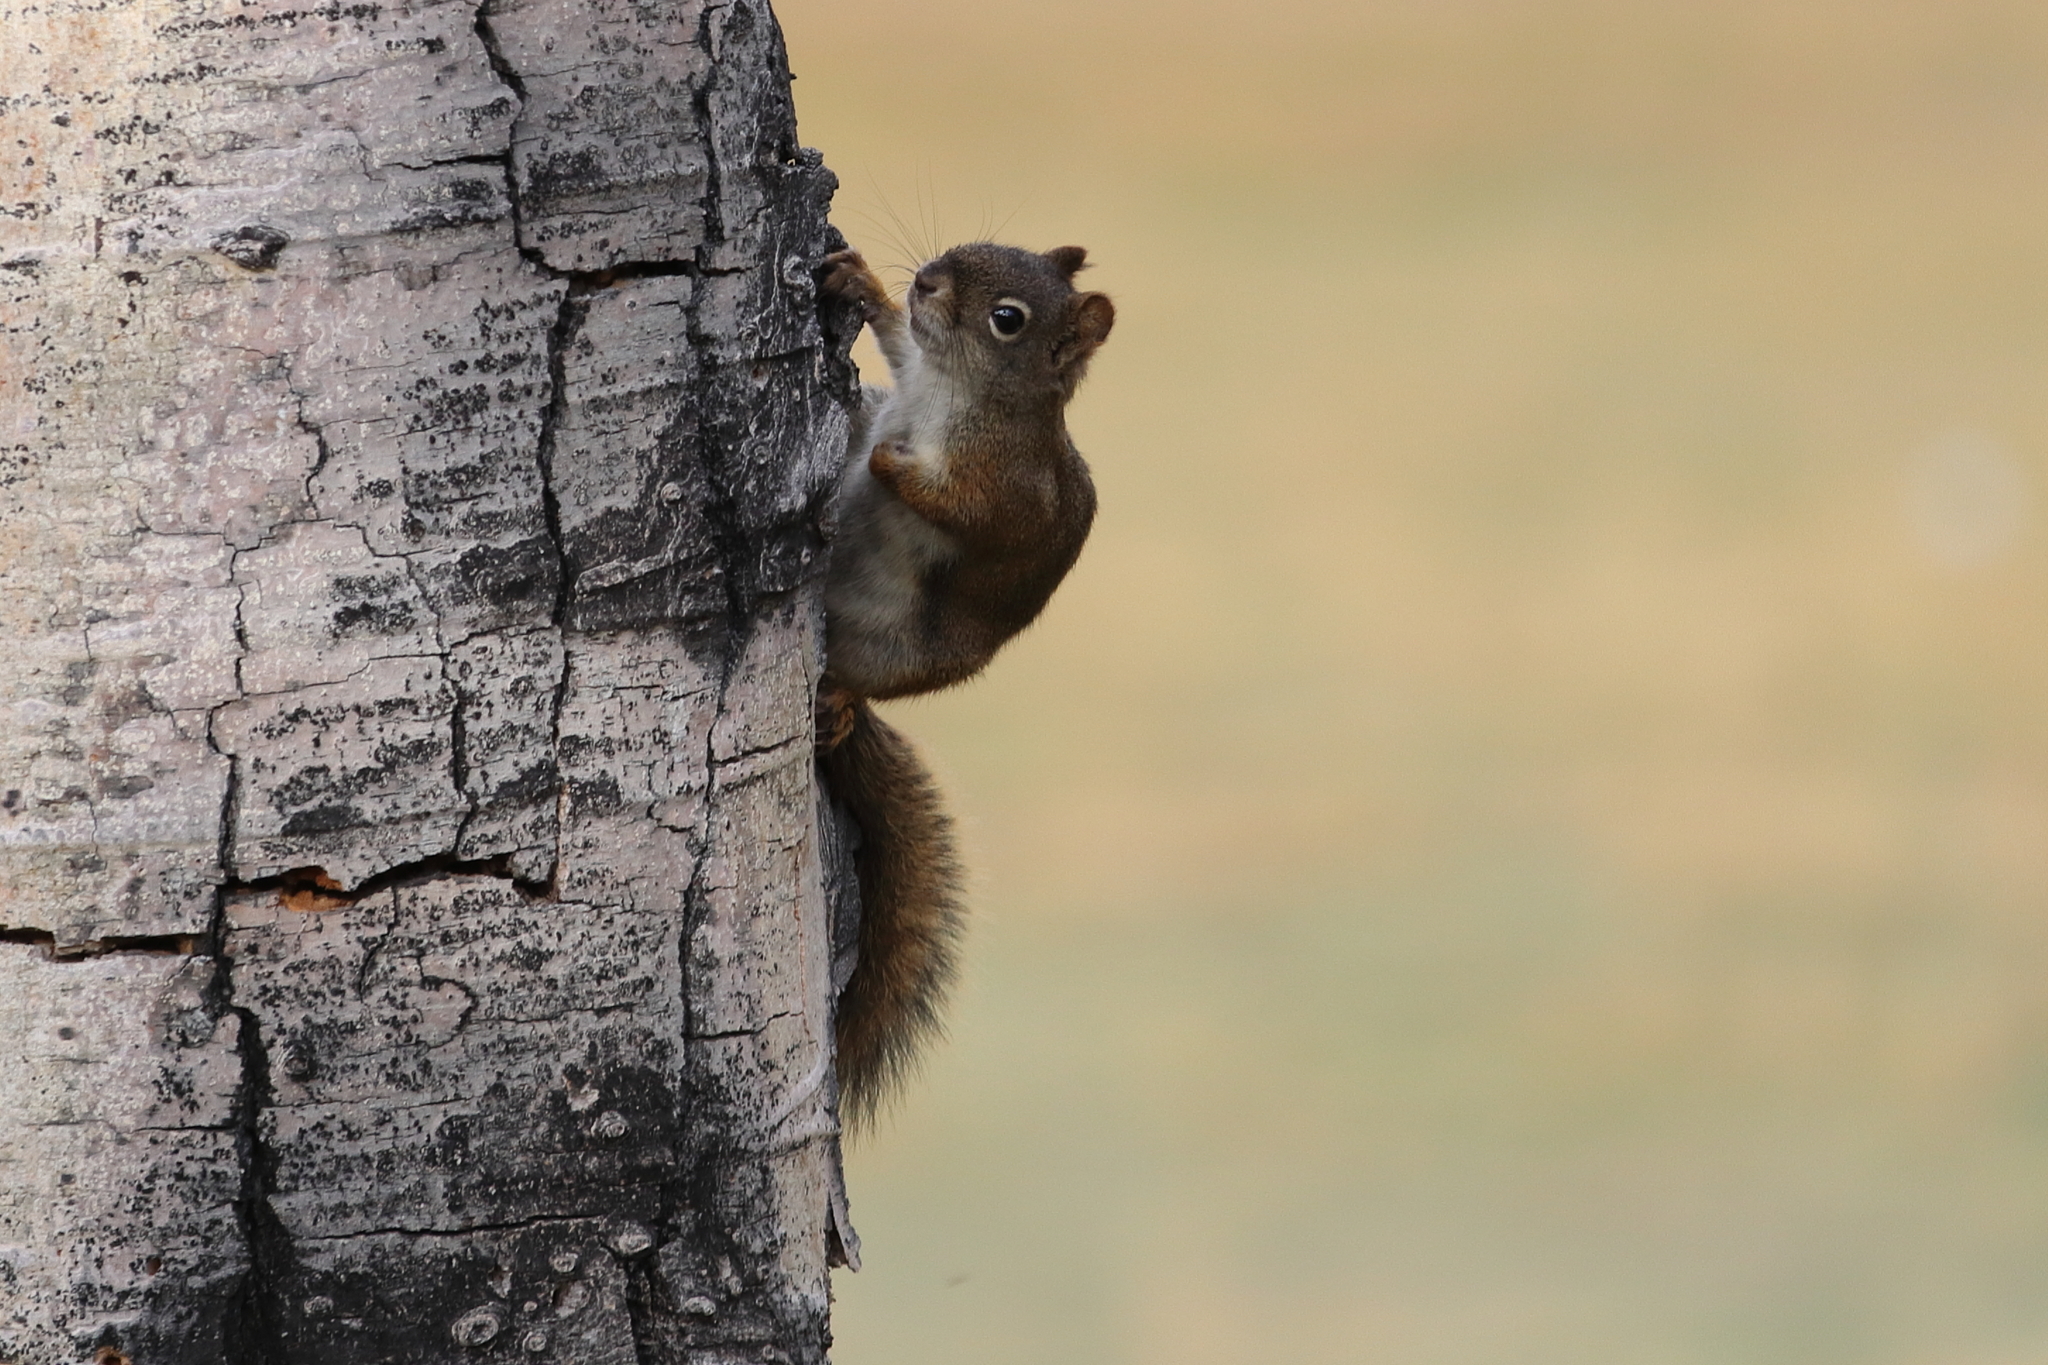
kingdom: Animalia
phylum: Chordata
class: Mammalia
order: Rodentia
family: Sciuridae
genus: Tamiasciurus
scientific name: Tamiasciurus hudsonicus
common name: Red squirrel
